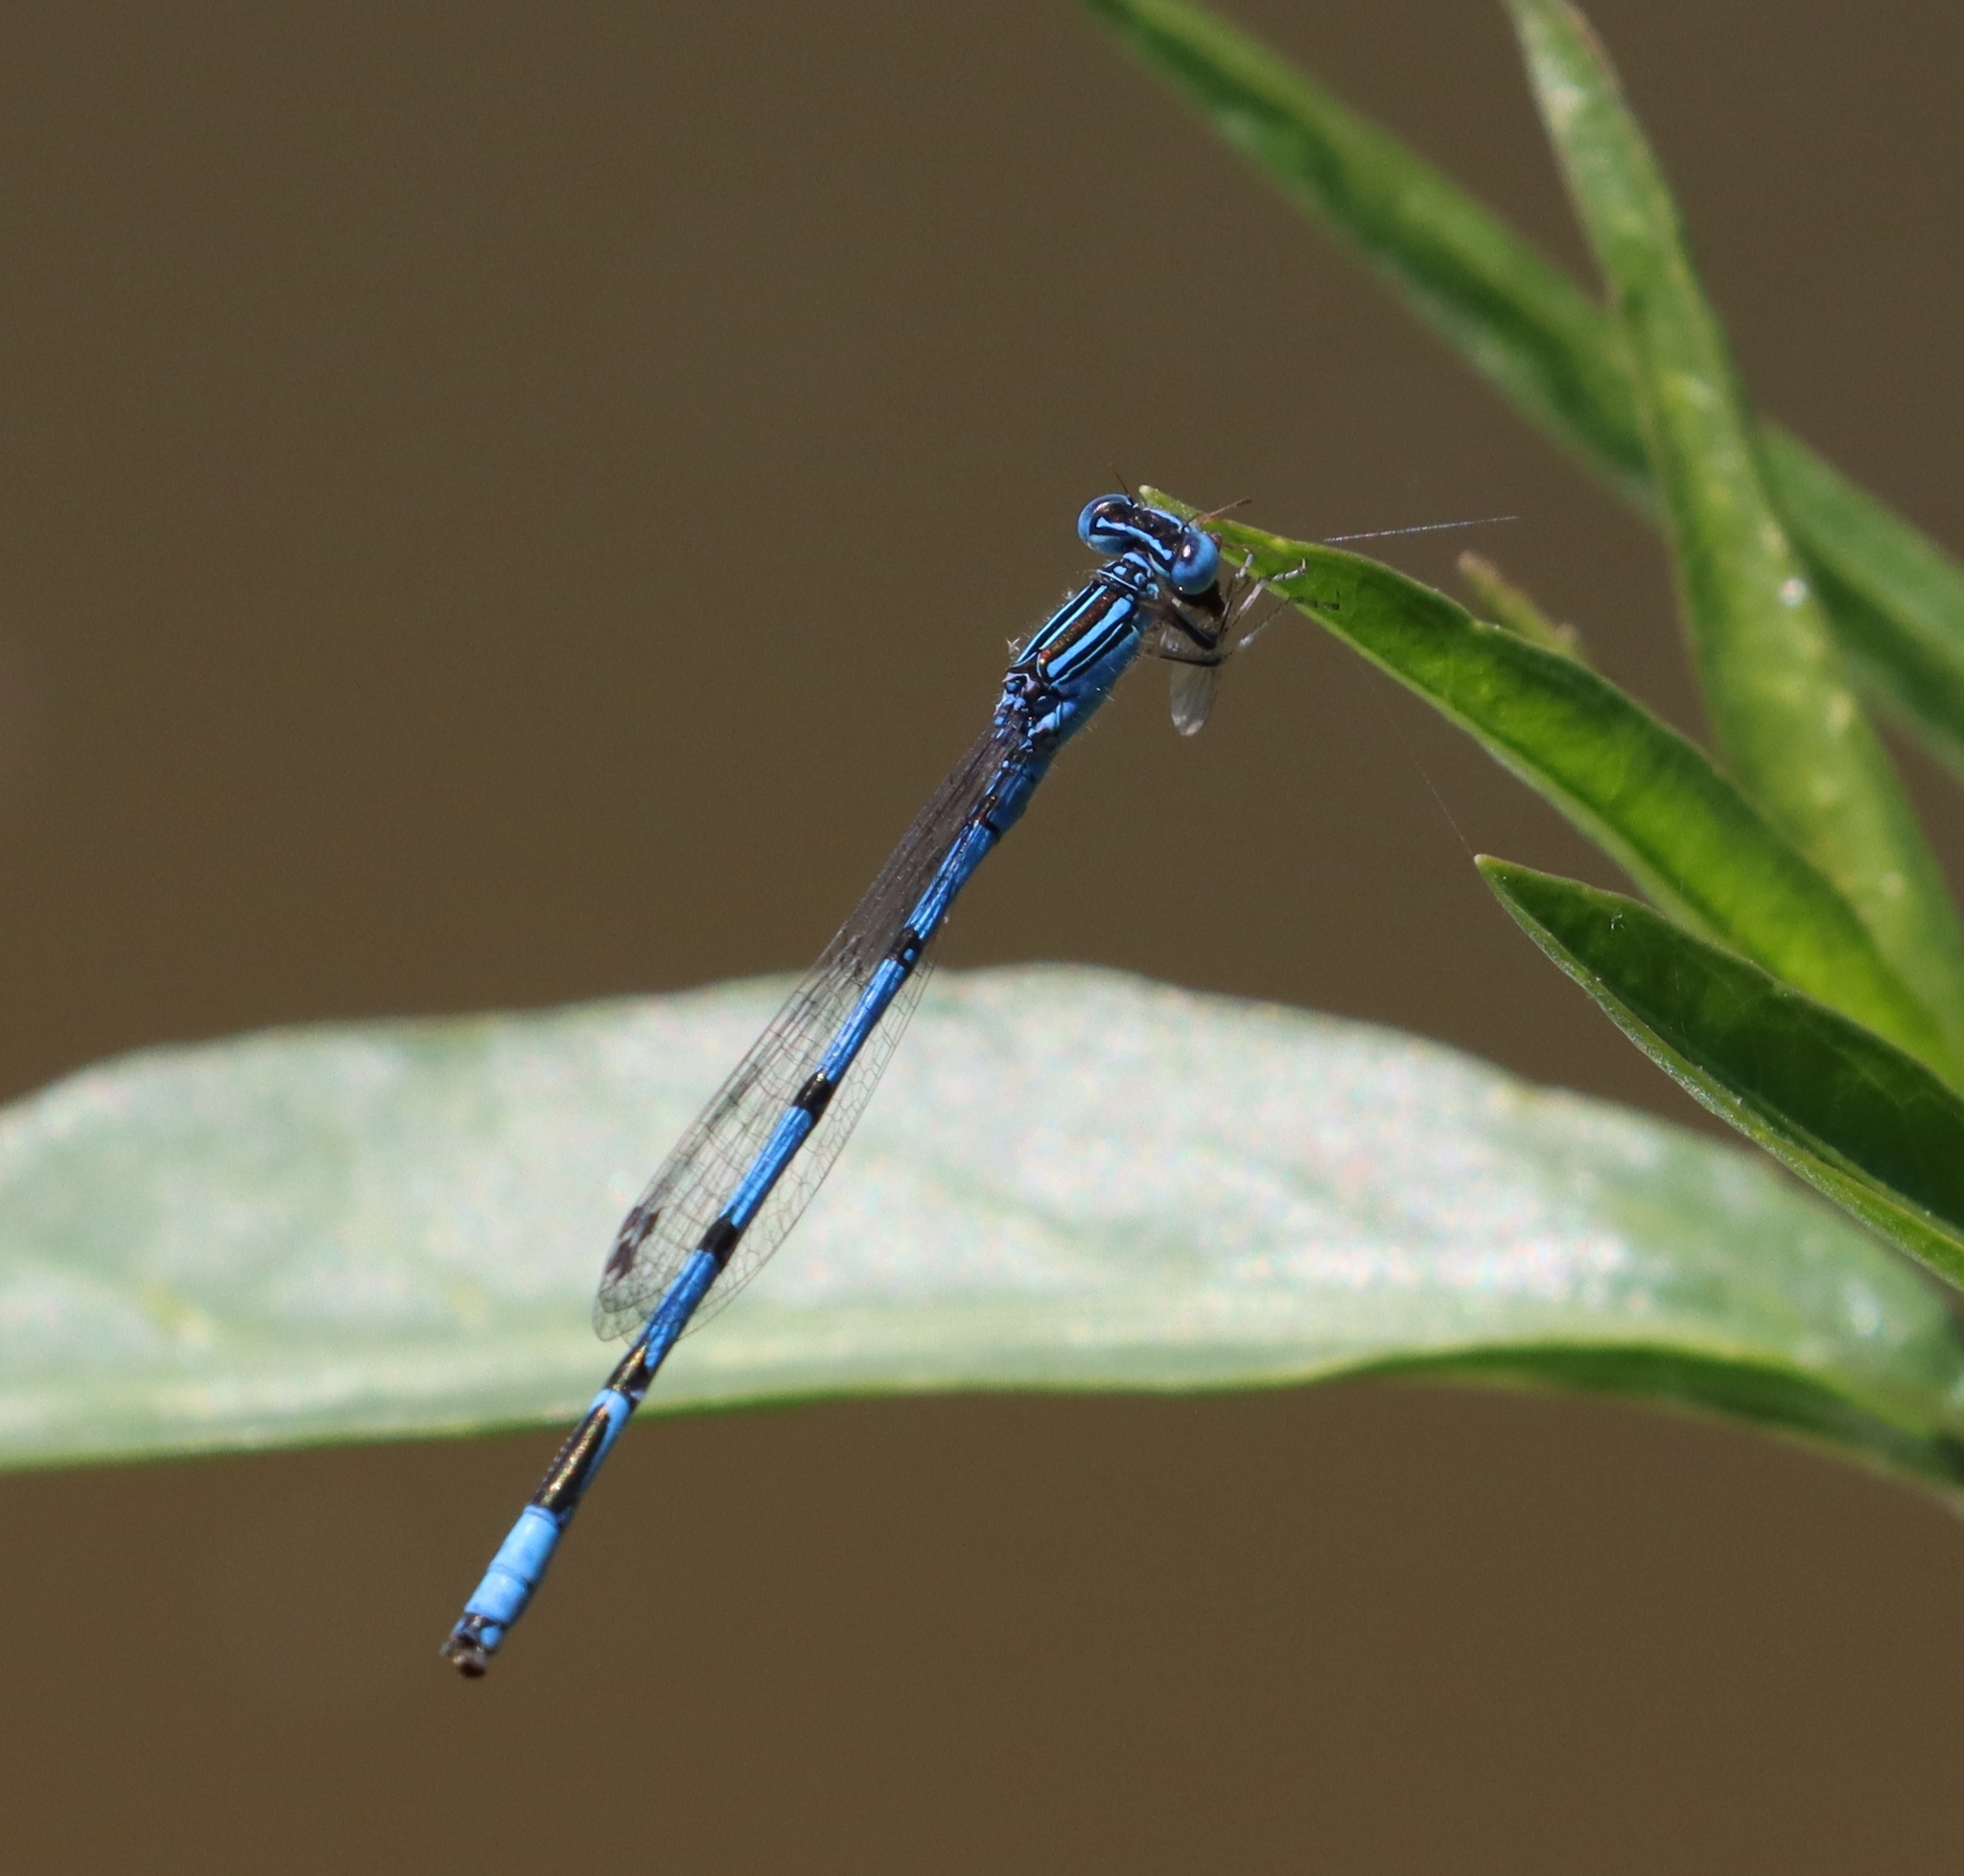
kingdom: Animalia
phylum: Arthropoda
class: Insecta
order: Odonata
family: Coenagrionidae
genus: Enallagma
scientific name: Enallagma basidens
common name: Double-striped bluet
